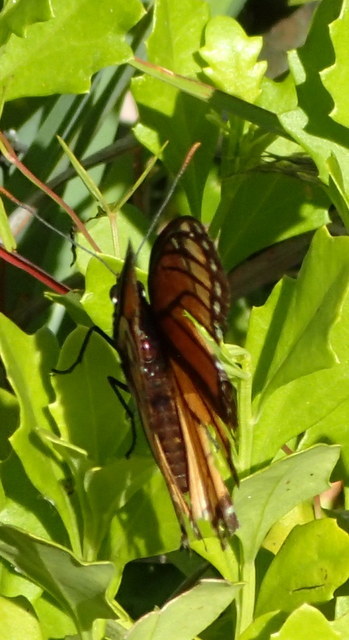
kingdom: Animalia
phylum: Arthropoda
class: Insecta
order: Lepidoptera
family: Nymphalidae
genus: Limenitis
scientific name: Limenitis archippus
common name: Viceroy
